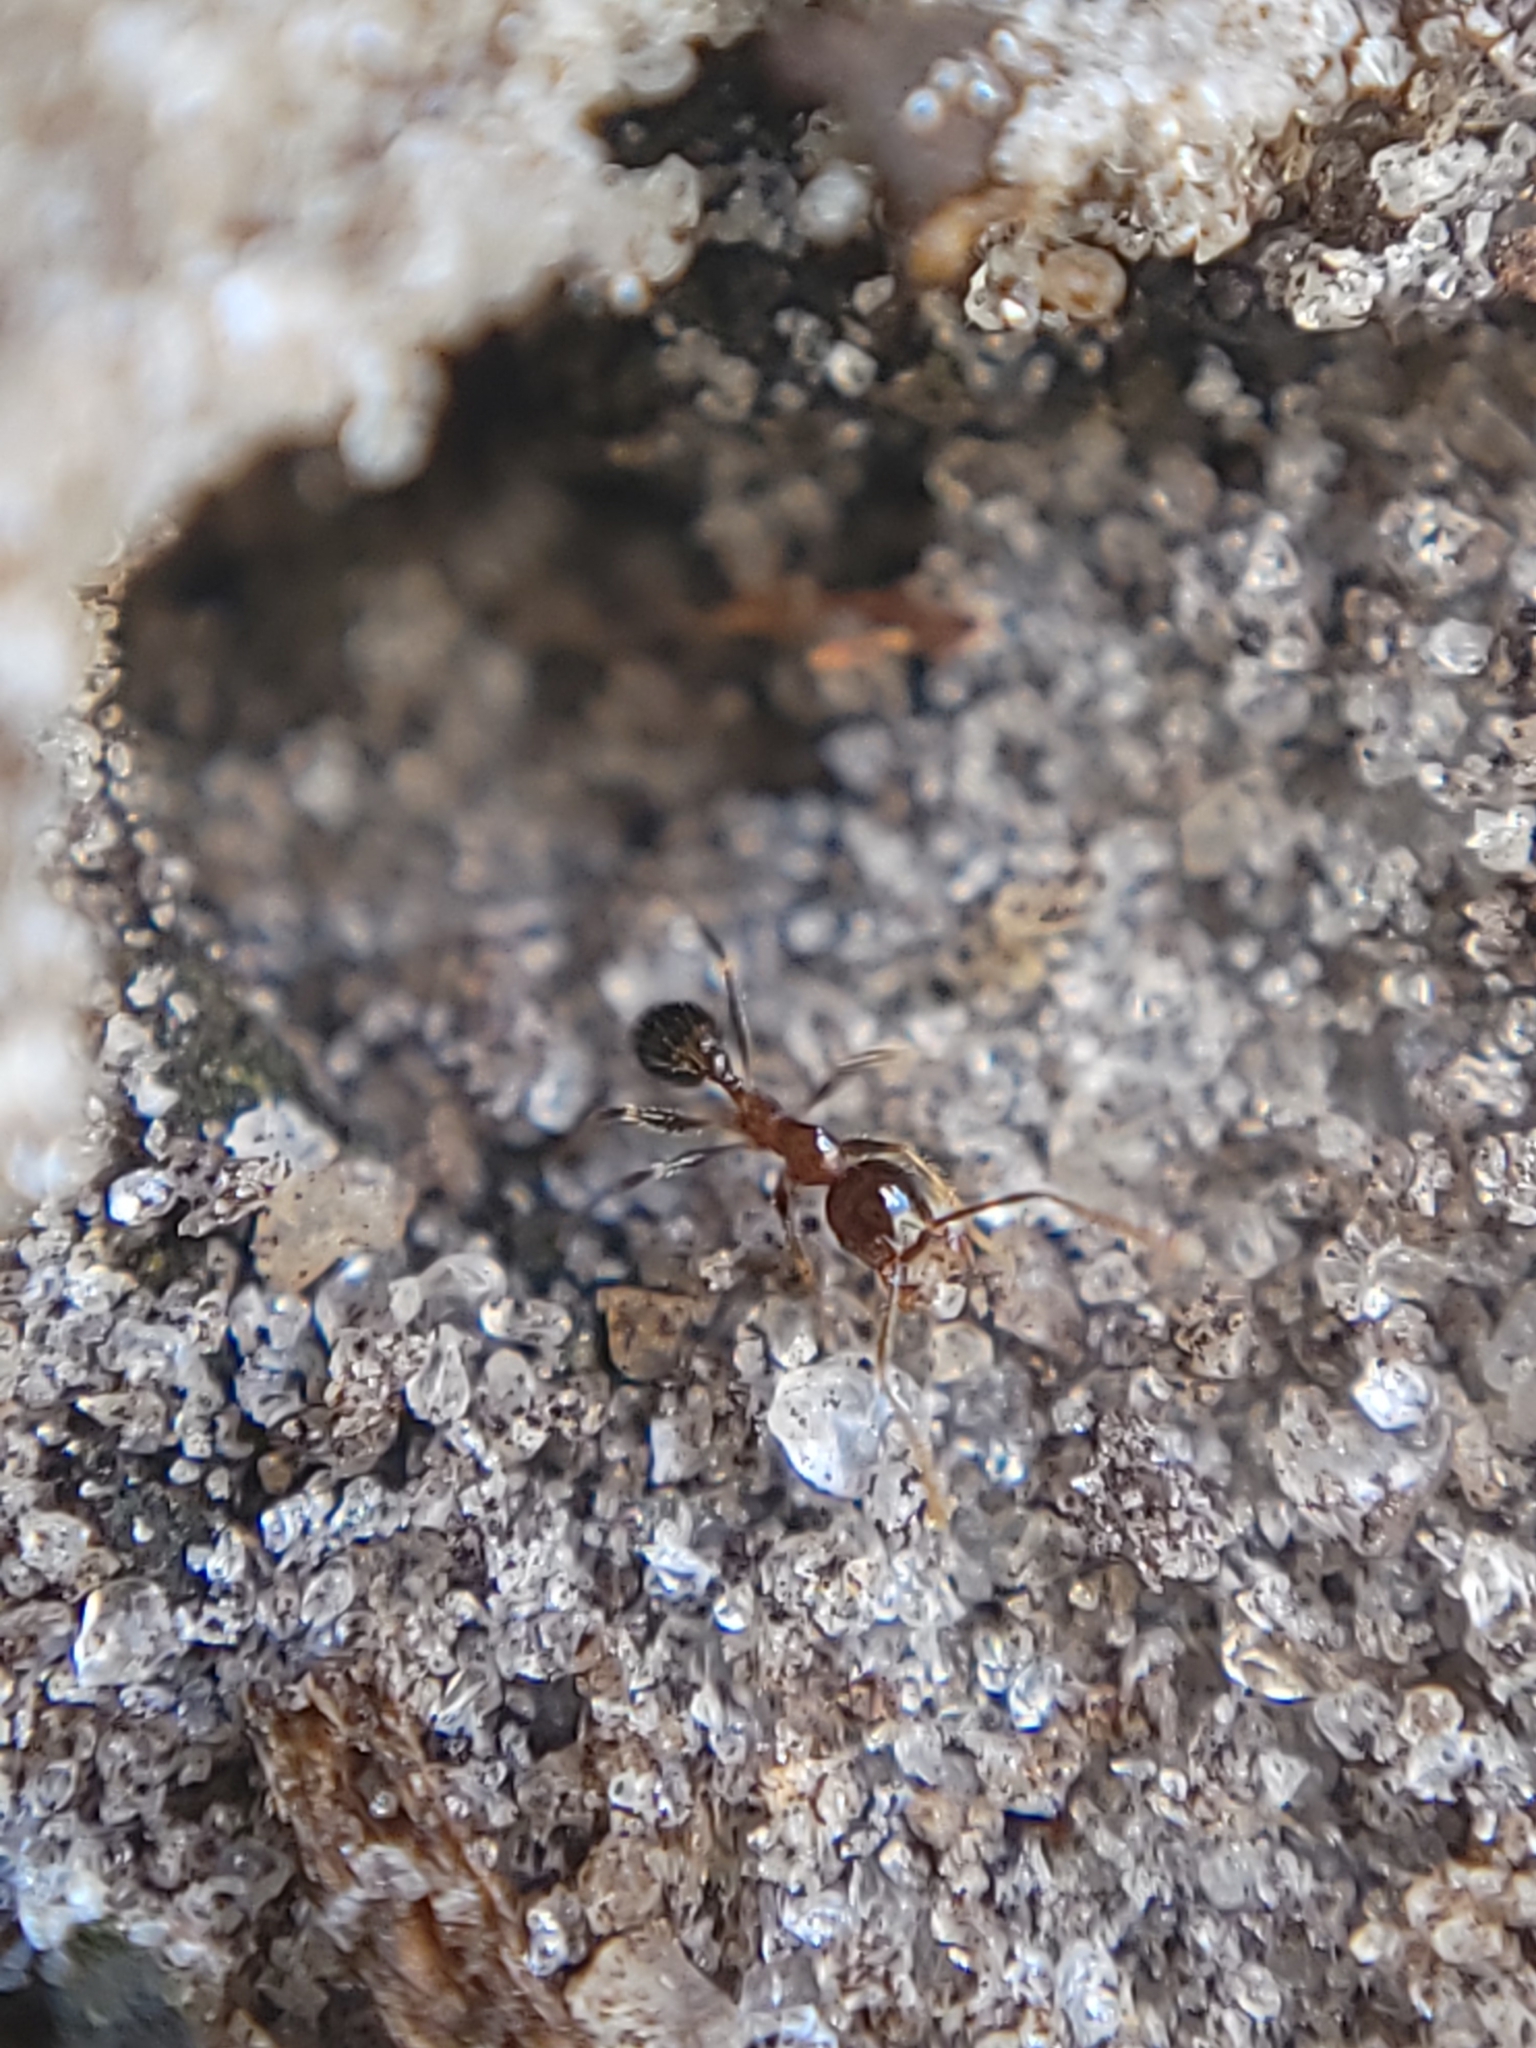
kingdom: Animalia
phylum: Arthropoda
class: Insecta
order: Hymenoptera
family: Formicidae
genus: Pheidole
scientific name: Pheidole megacephala
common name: Bigheaded ant
